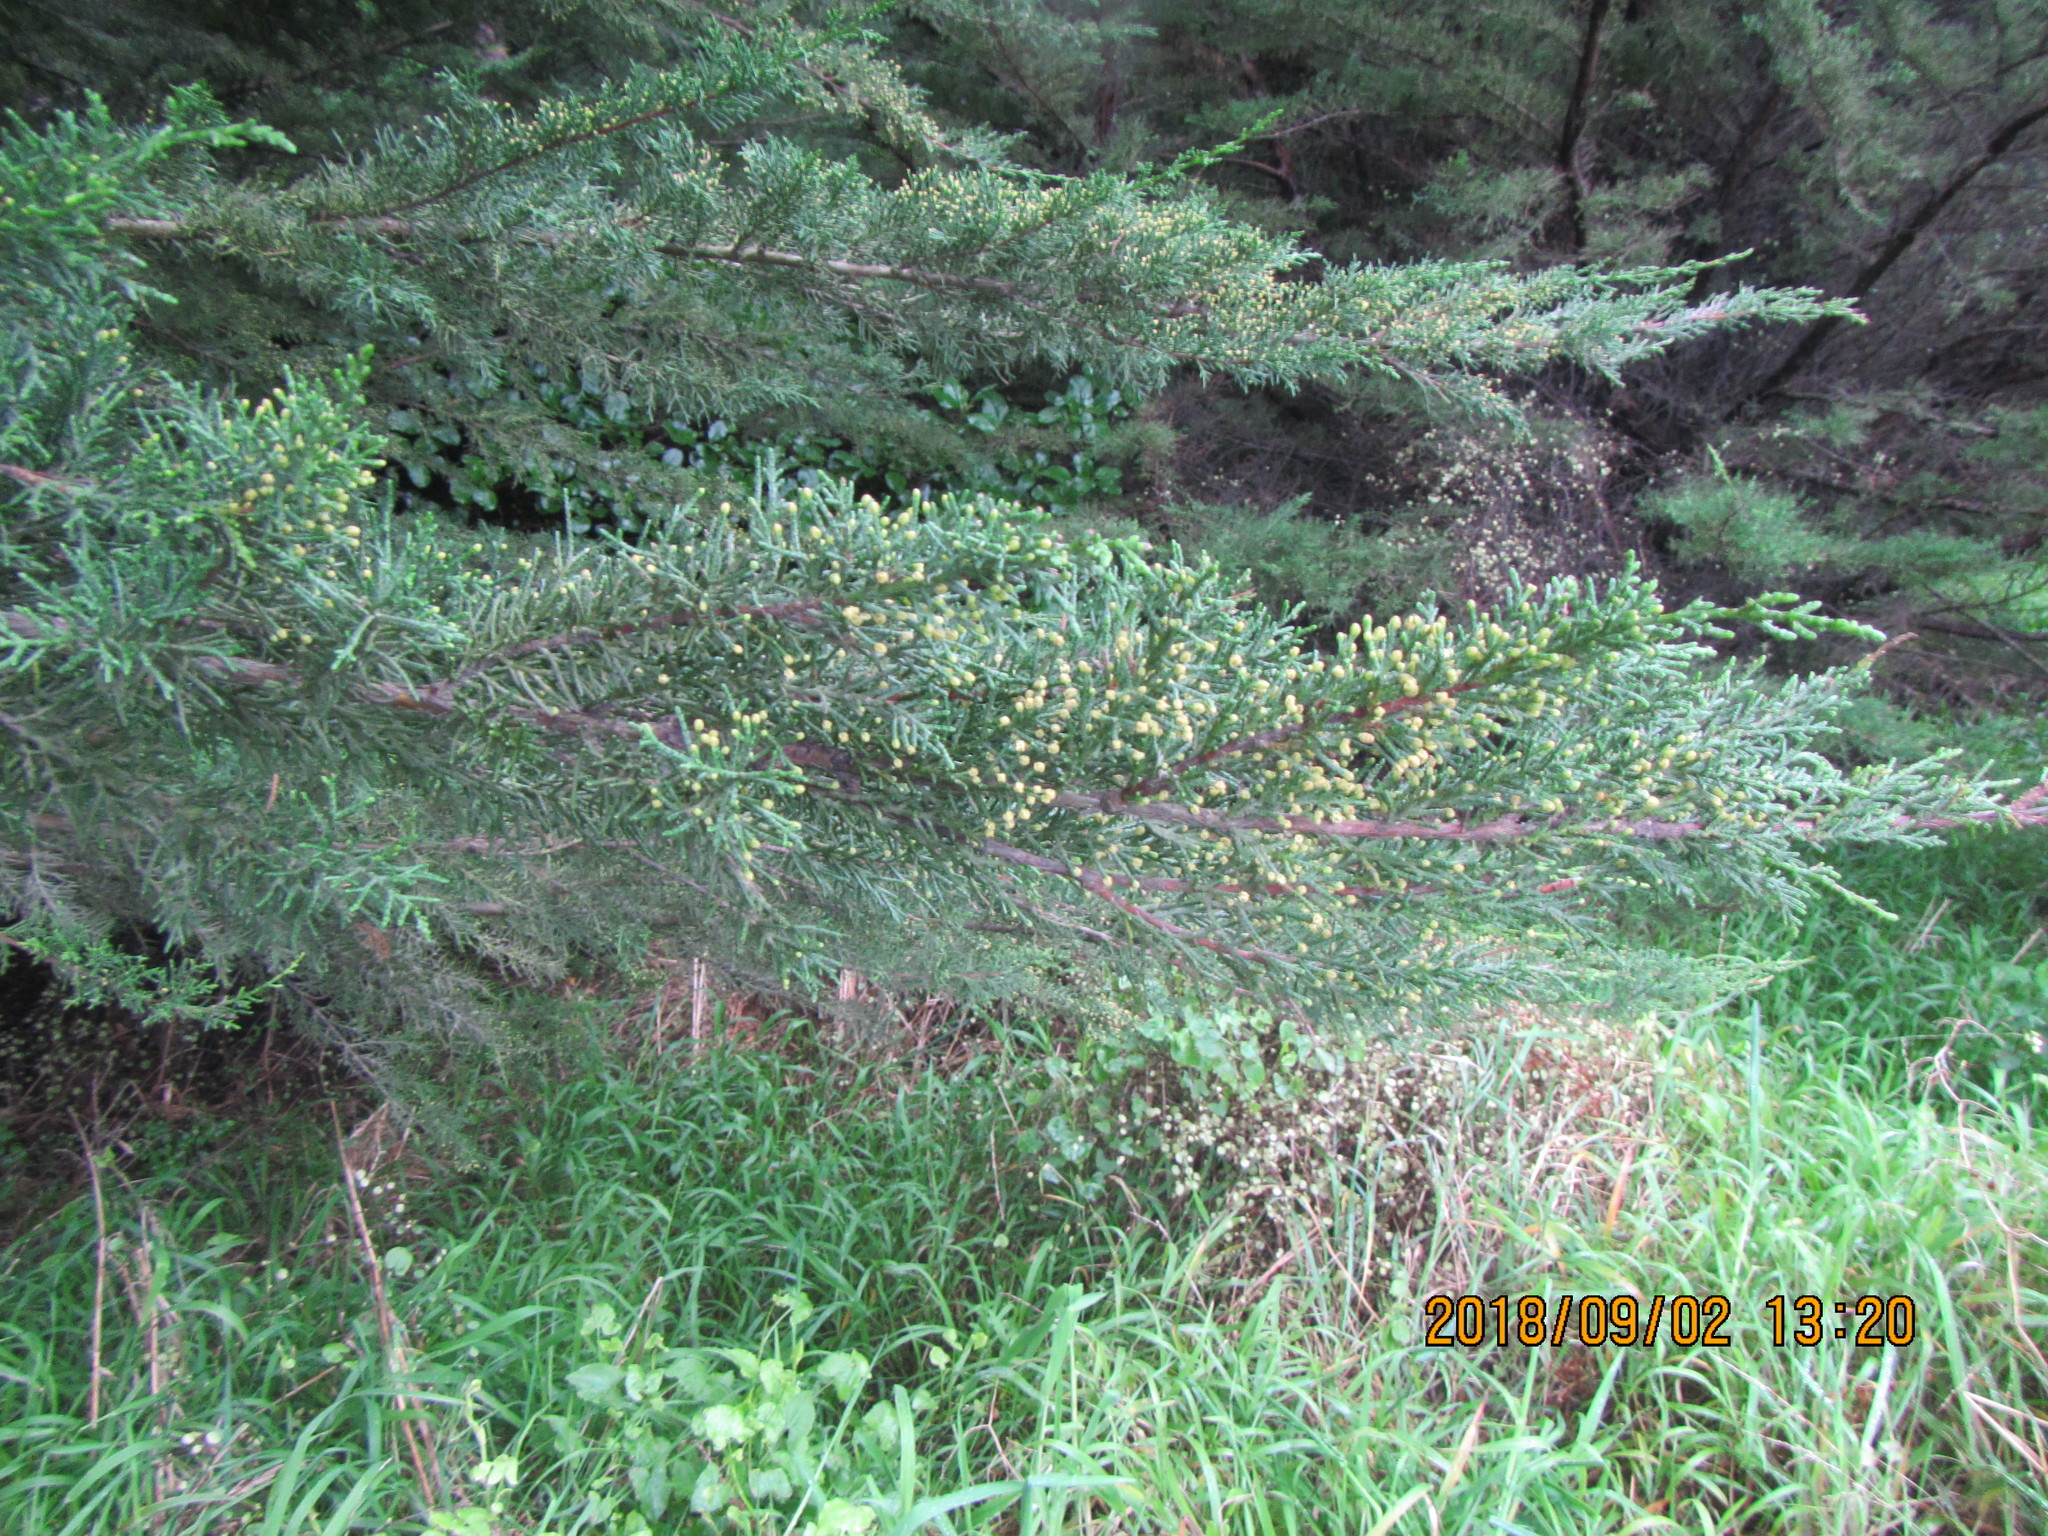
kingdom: Plantae
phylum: Tracheophyta
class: Pinopsida
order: Pinales
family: Cupressaceae
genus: Cupressus
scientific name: Cupressus macrocarpa
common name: Monterey cypress
